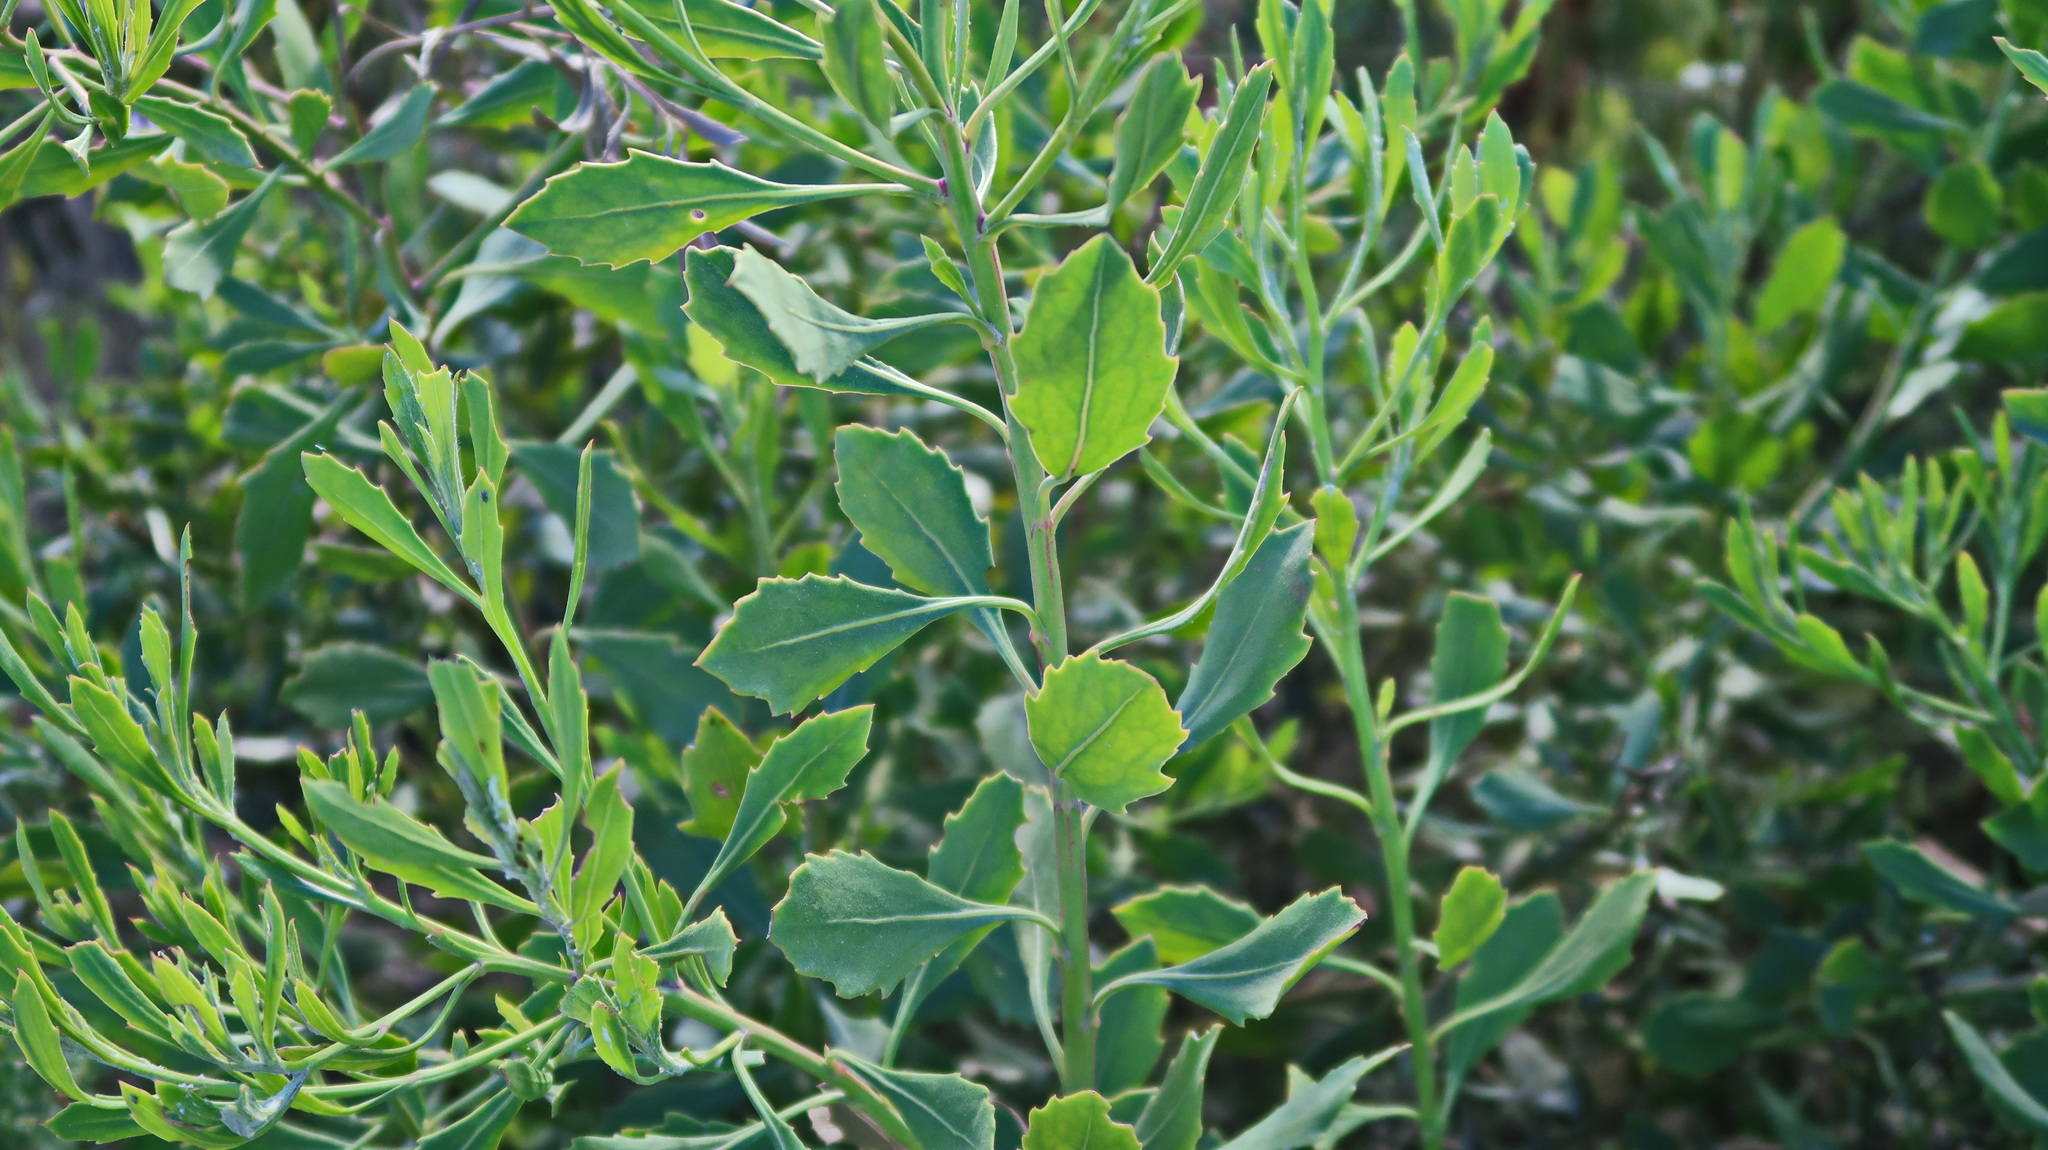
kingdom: Plantae
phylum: Tracheophyta
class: Magnoliopsida
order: Asterales
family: Asteraceae
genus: Osteospermum
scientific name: Osteospermum moniliferum
